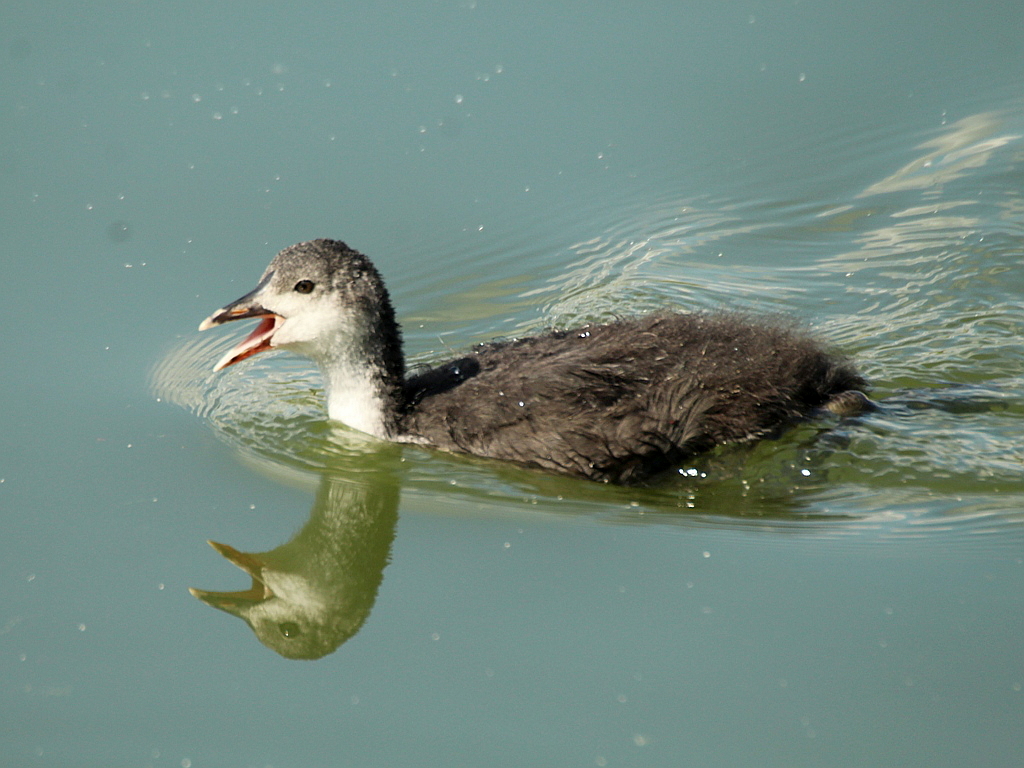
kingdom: Animalia
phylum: Chordata
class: Aves
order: Gruiformes
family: Rallidae
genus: Fulica
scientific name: Fulica atra
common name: Eurasian coot
